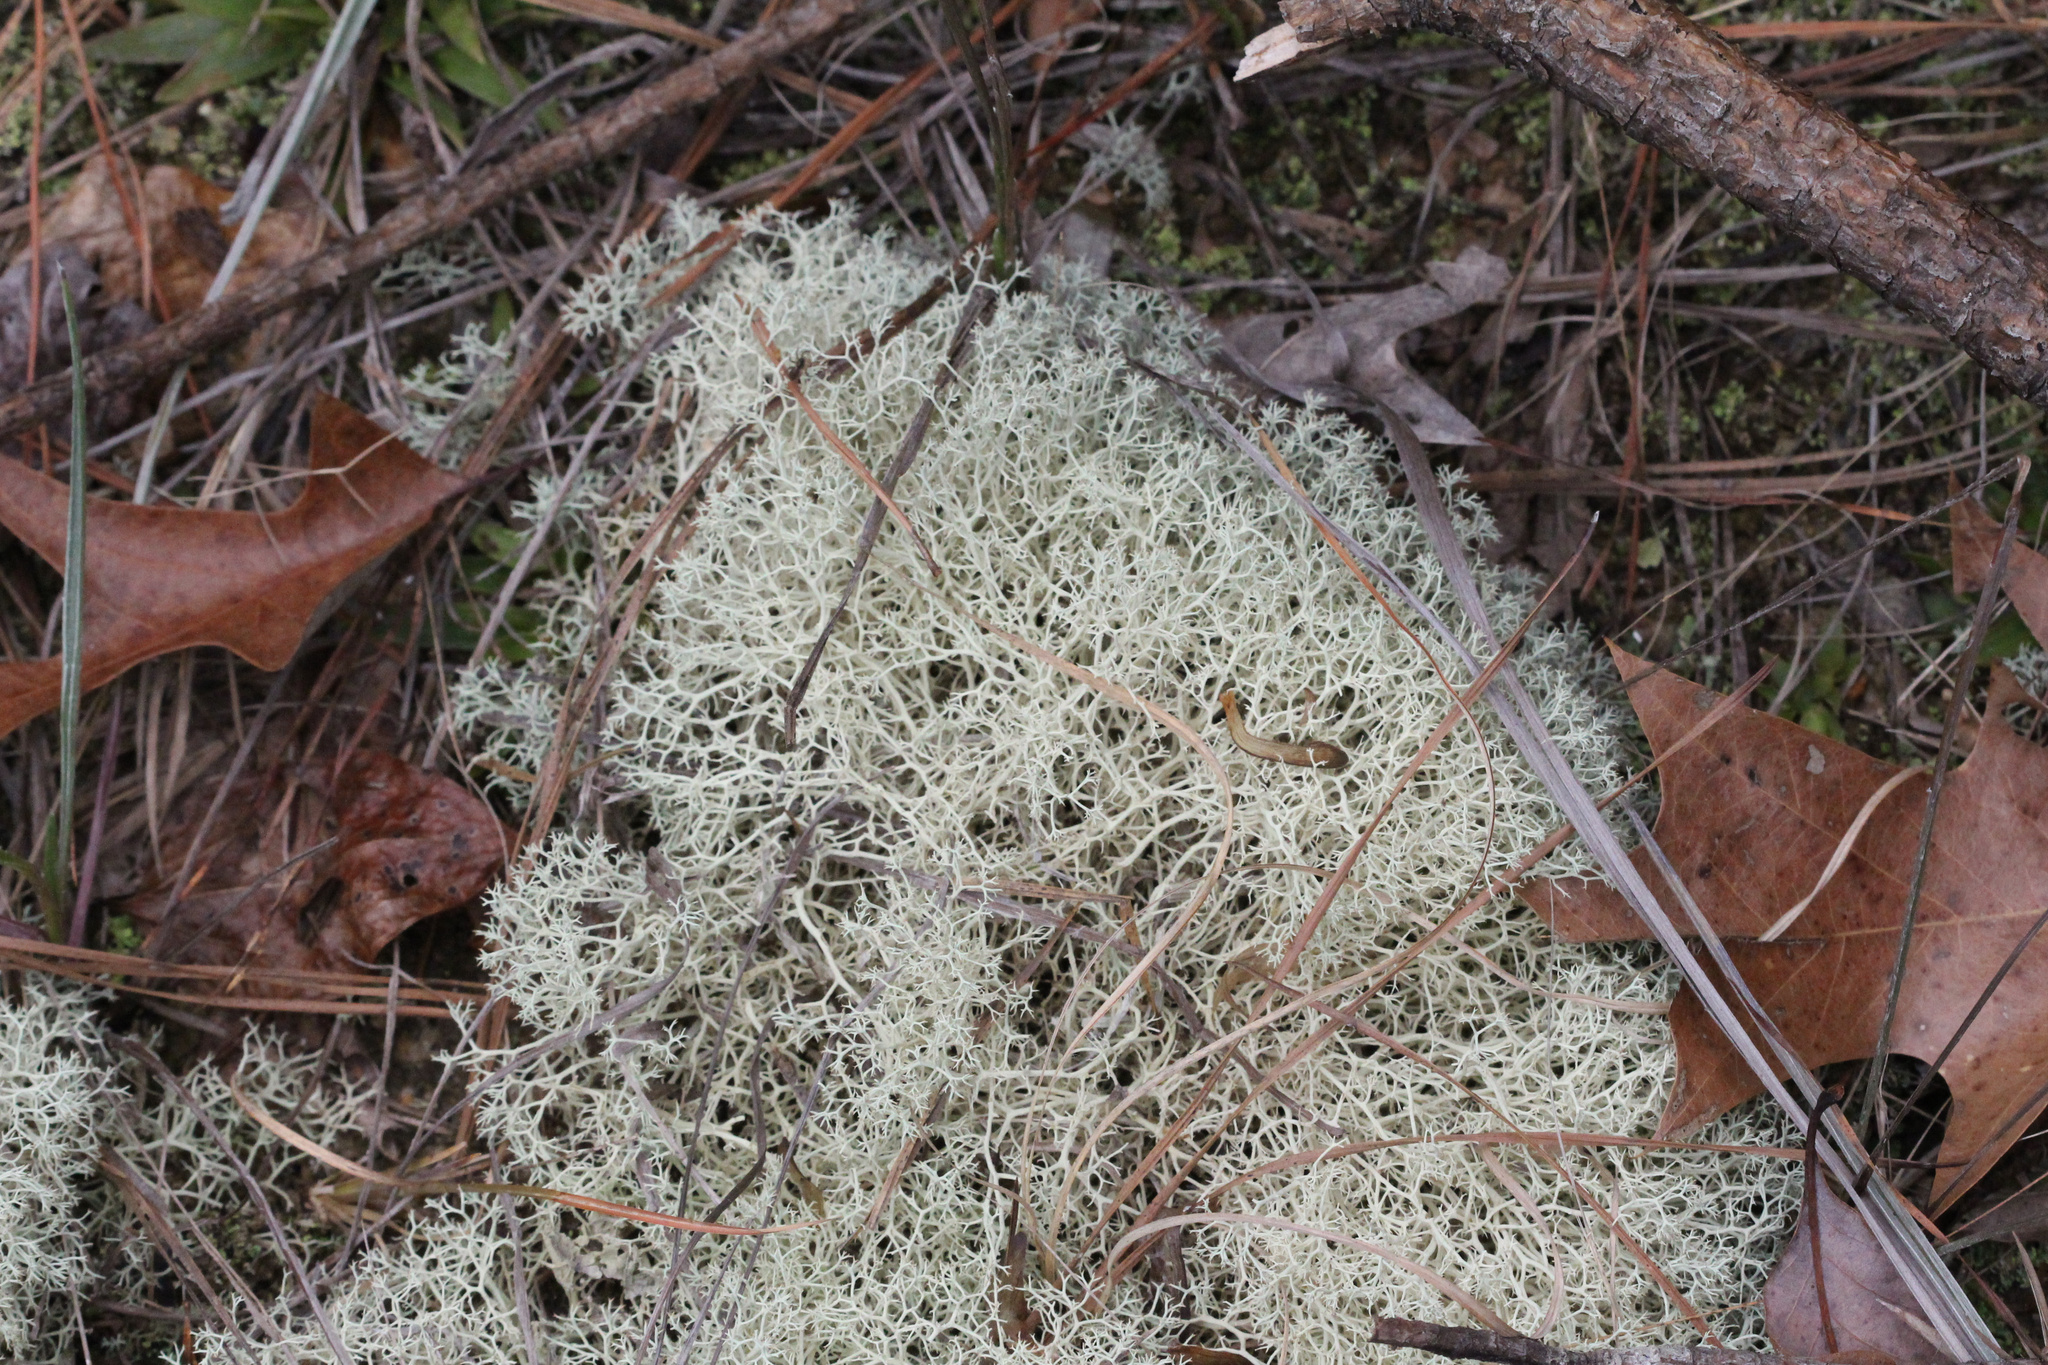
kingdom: Fungi
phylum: Ascomycota
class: Lecanoromycetes
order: Lecanorales
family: Cladoniaceae
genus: Cladonia
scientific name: Cladonia subtenuis
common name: Dixie reindeer lichen
